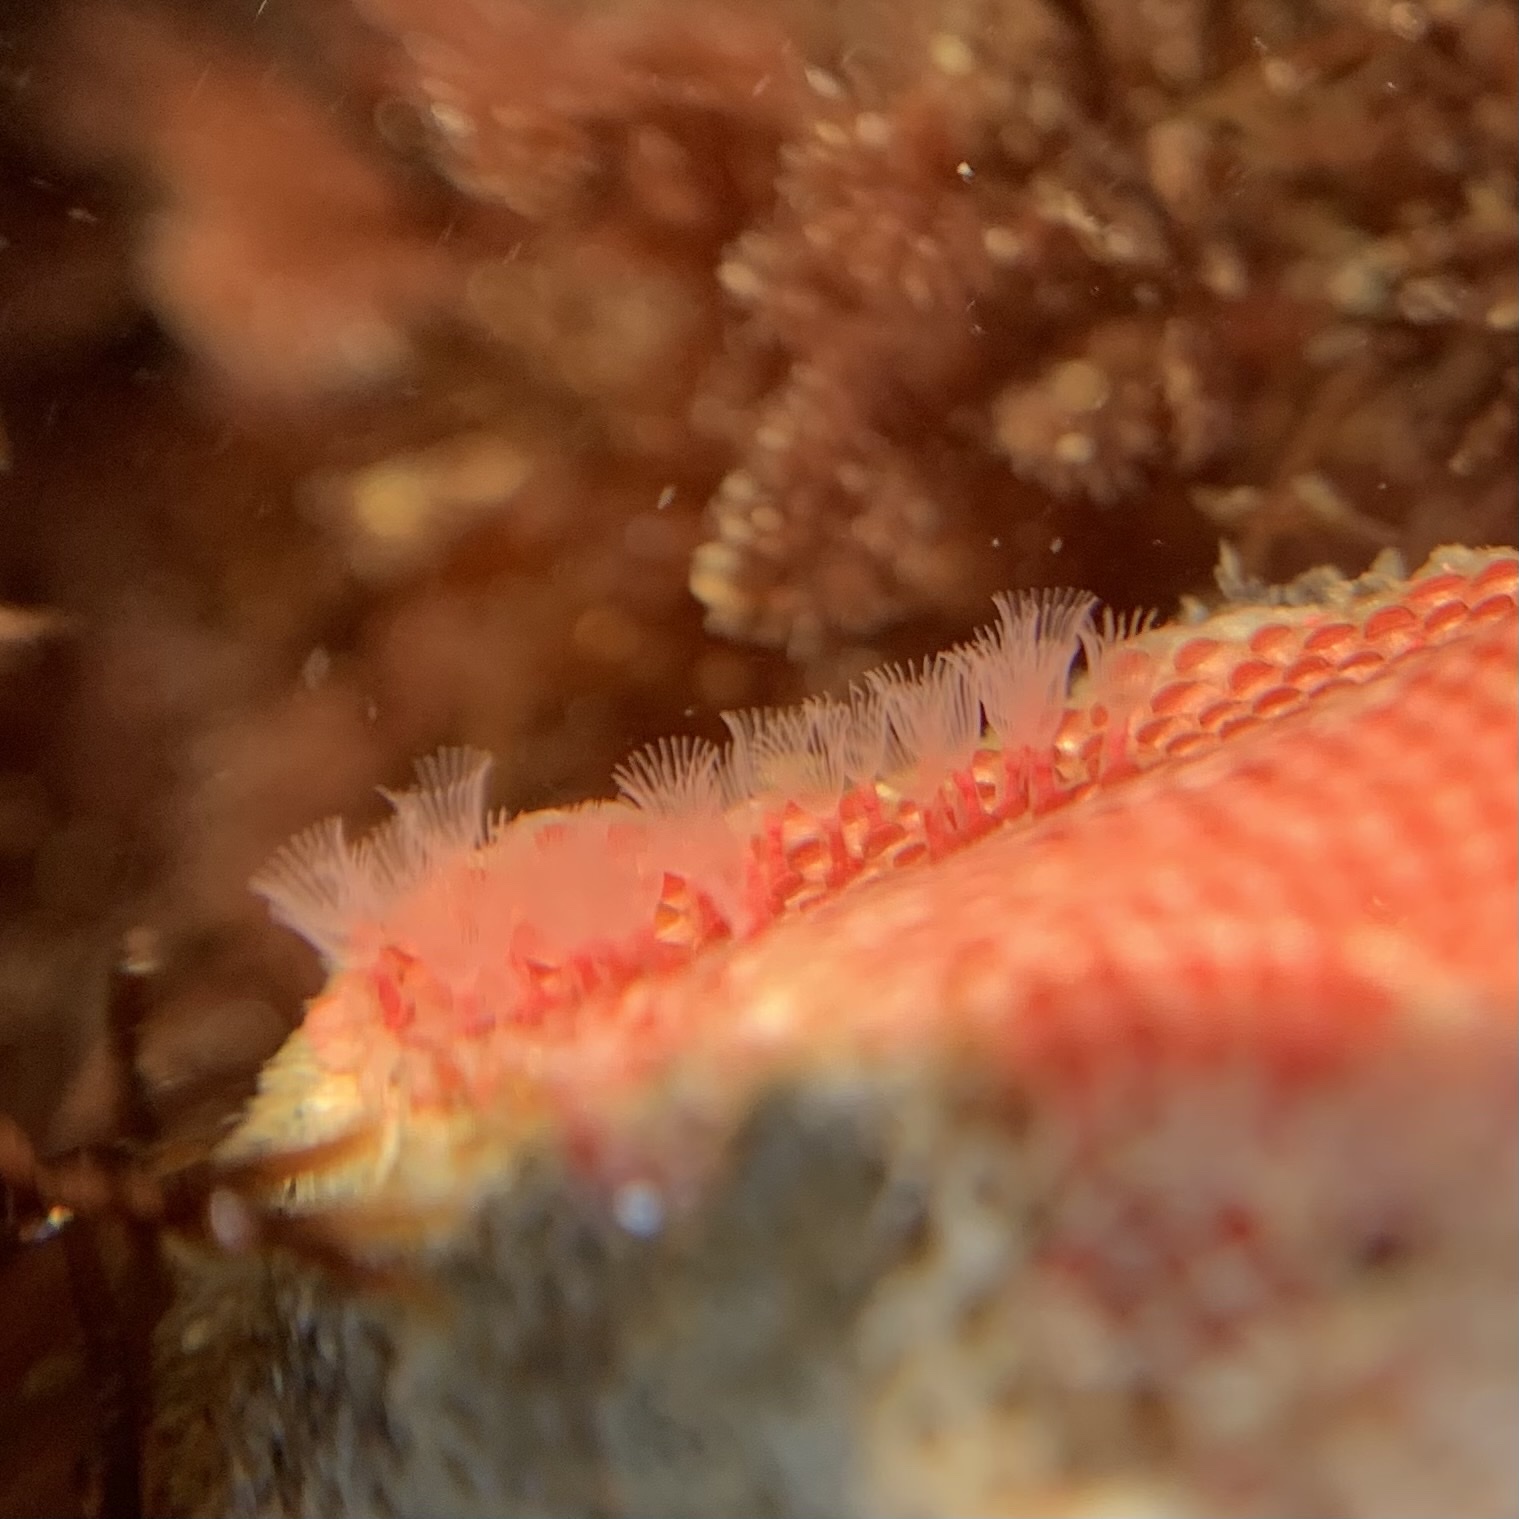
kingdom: Animalia
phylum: Bryozoa
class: Gymnolaemata
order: Cheilostomatida
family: Eurystomellidae
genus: Integripelta
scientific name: Integripelta bilabiata
